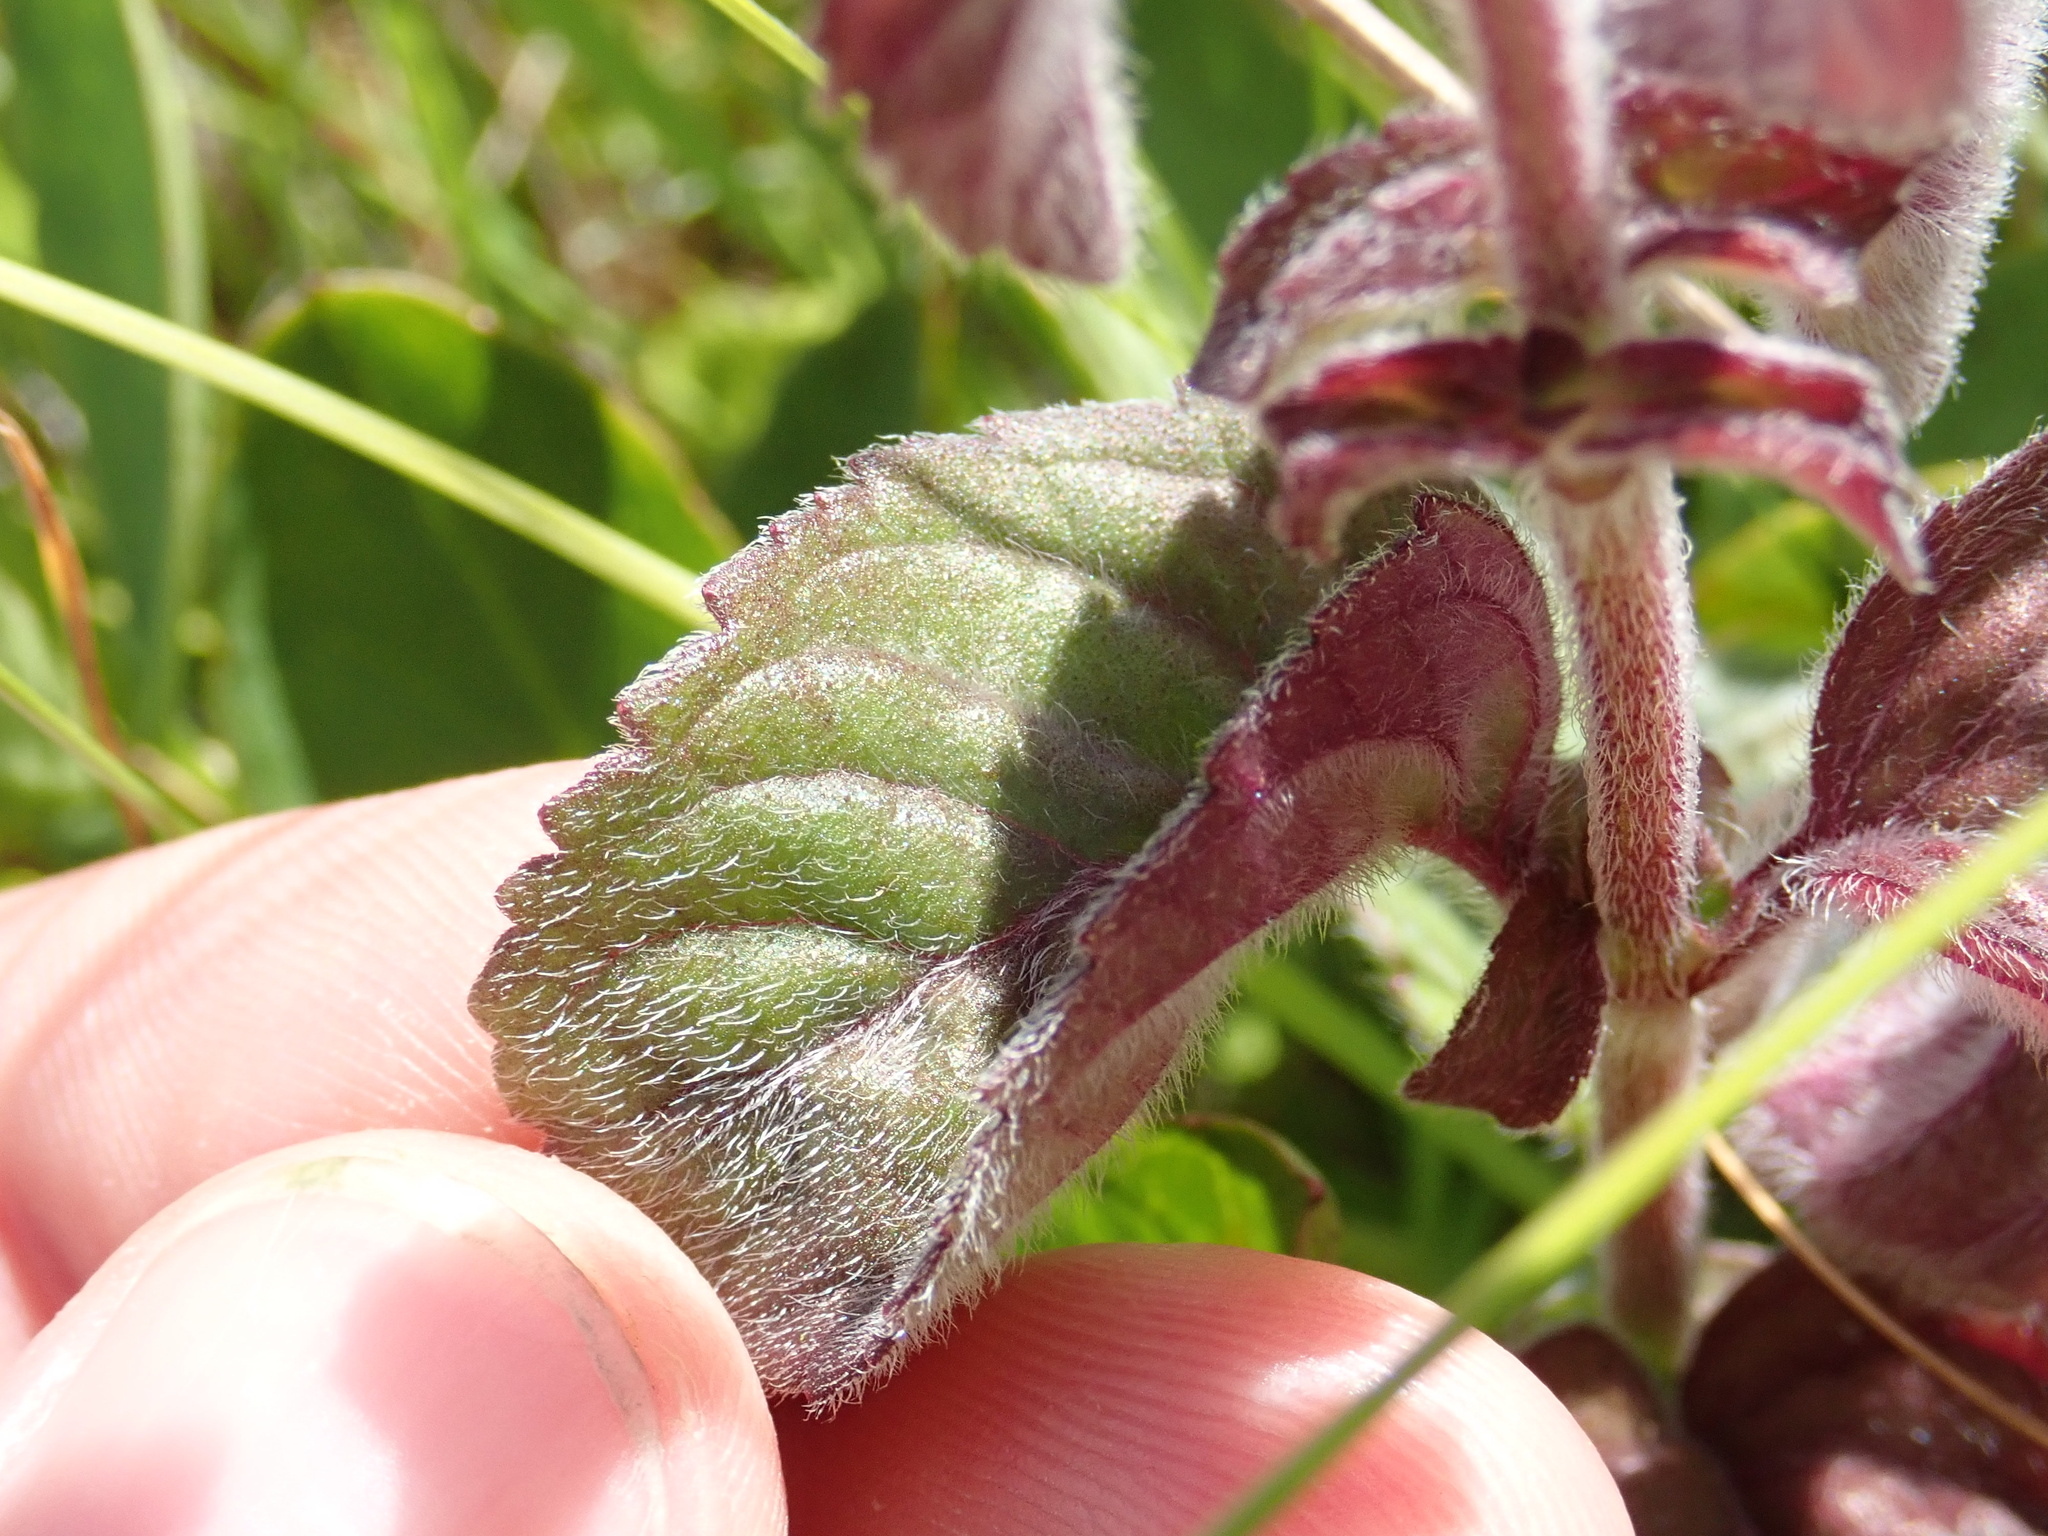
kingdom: Plantae
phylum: Tracheophyta
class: Magnoliopsida
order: Lamiales
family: Lamiaceae
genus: Mentha
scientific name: Mentha aquatica
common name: Water mint
